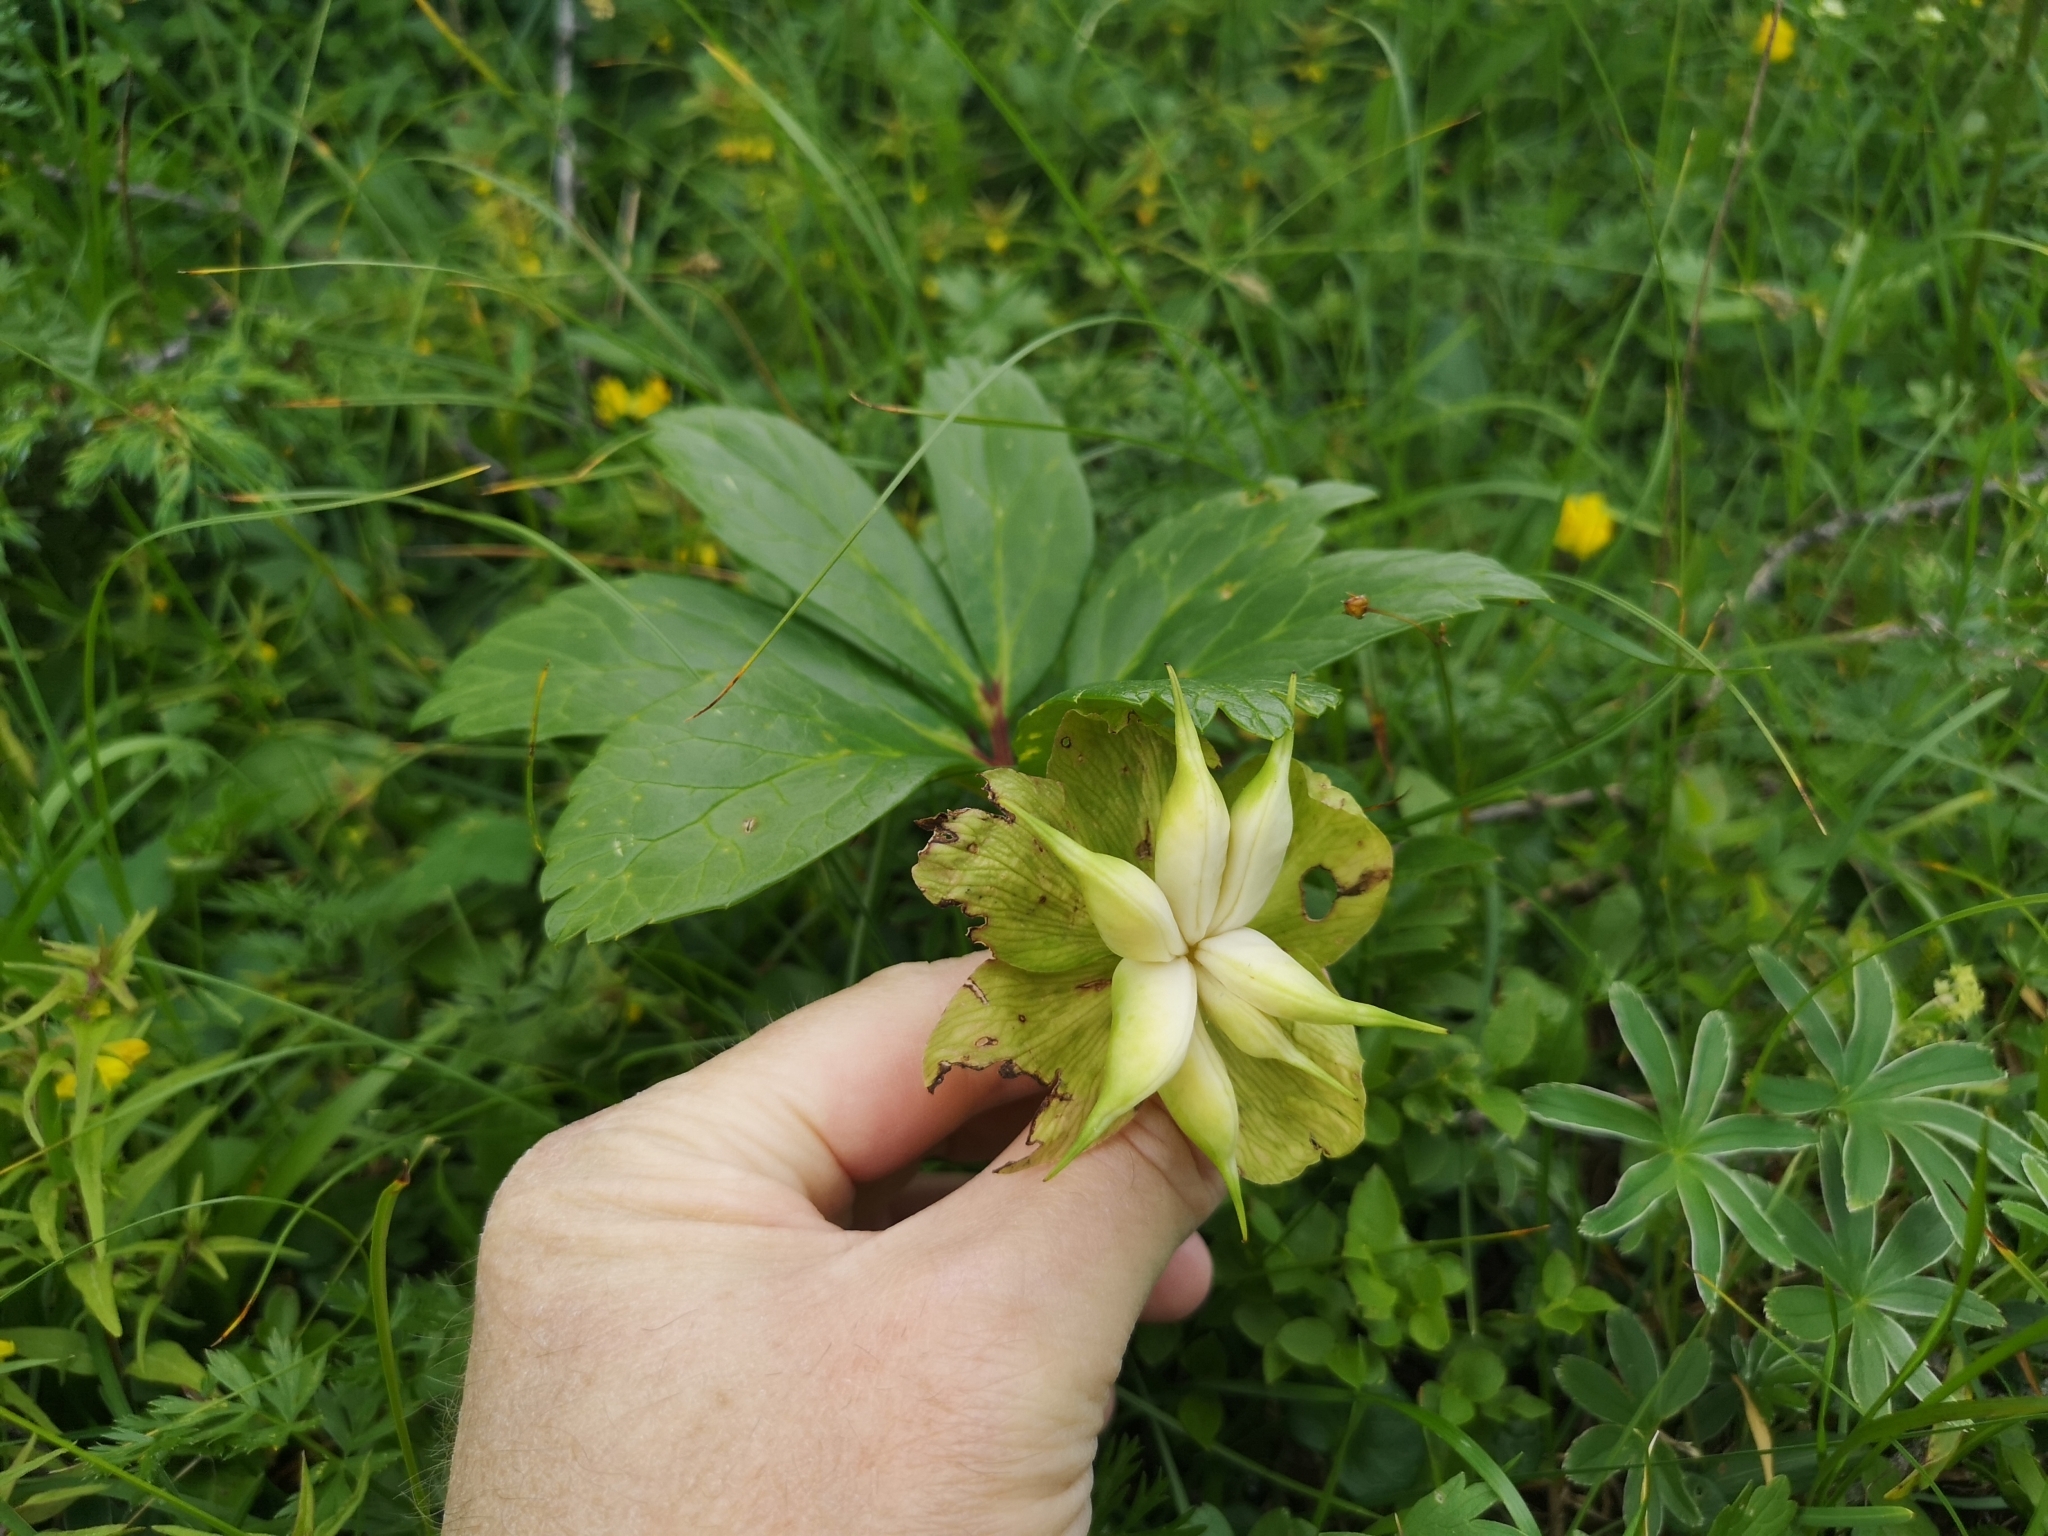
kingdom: Plantae
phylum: Tracheophyta
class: Magnoliopsida
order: Ranunculales
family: Ranunculaceae
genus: Helleborus
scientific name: Helleborus niger
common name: Black hellebore
